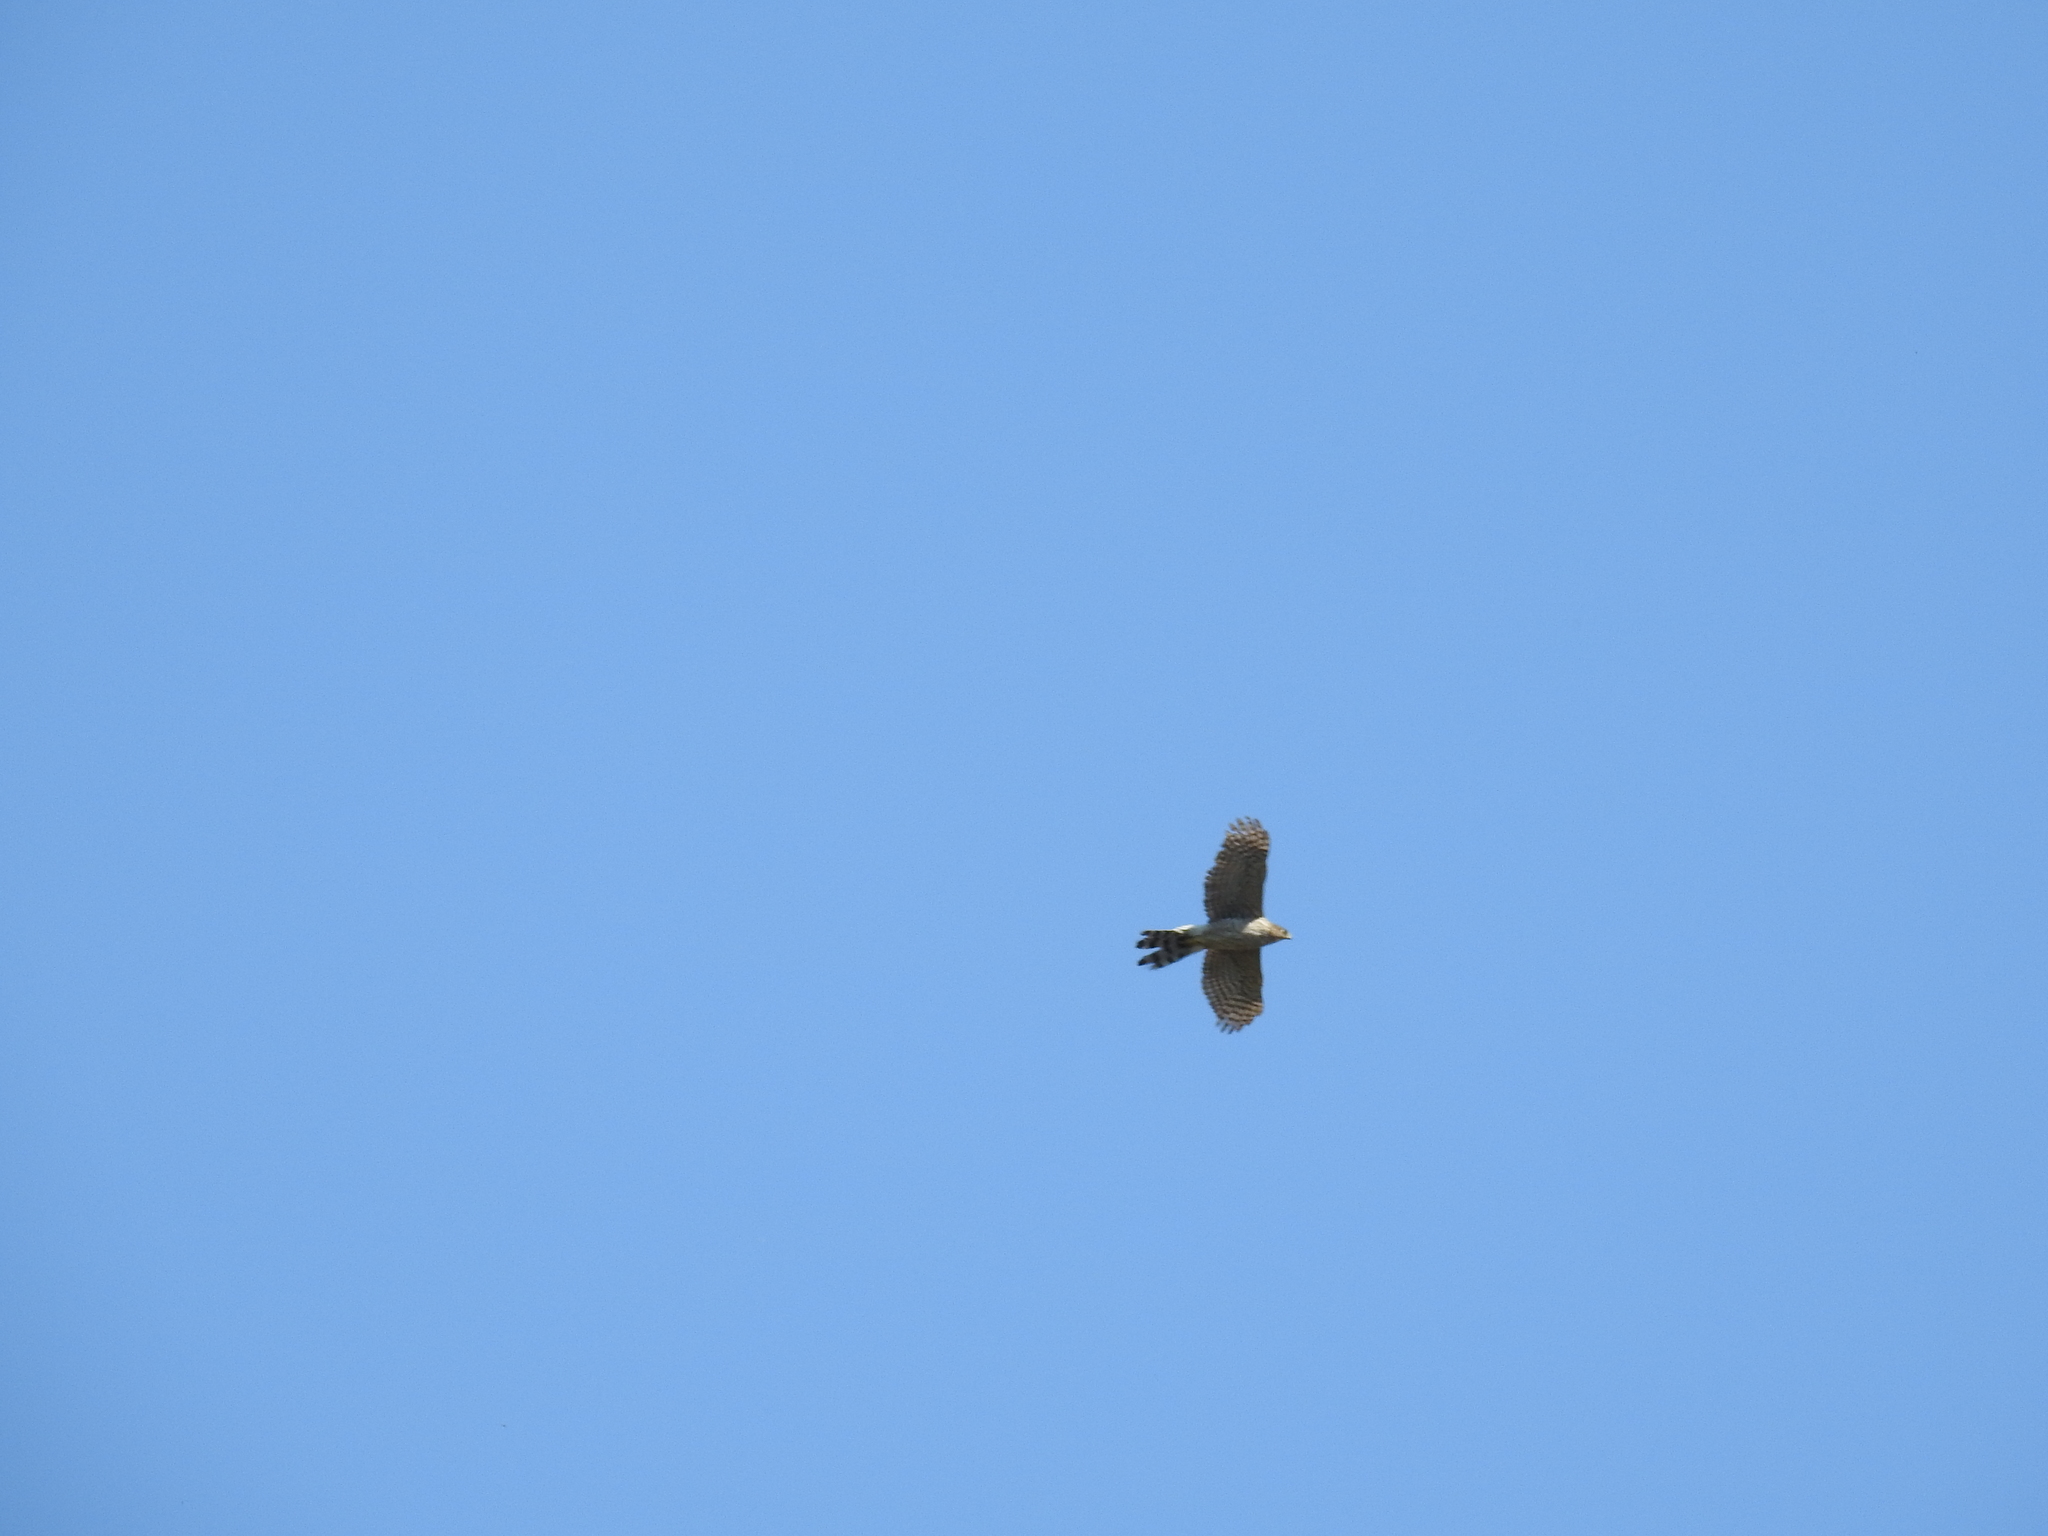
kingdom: Animalia
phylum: Chordata
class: Aves
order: Accipitriformes
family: Accipitridae
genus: Accipiter
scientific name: Accipiter cooperii
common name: Cooper's hawk
